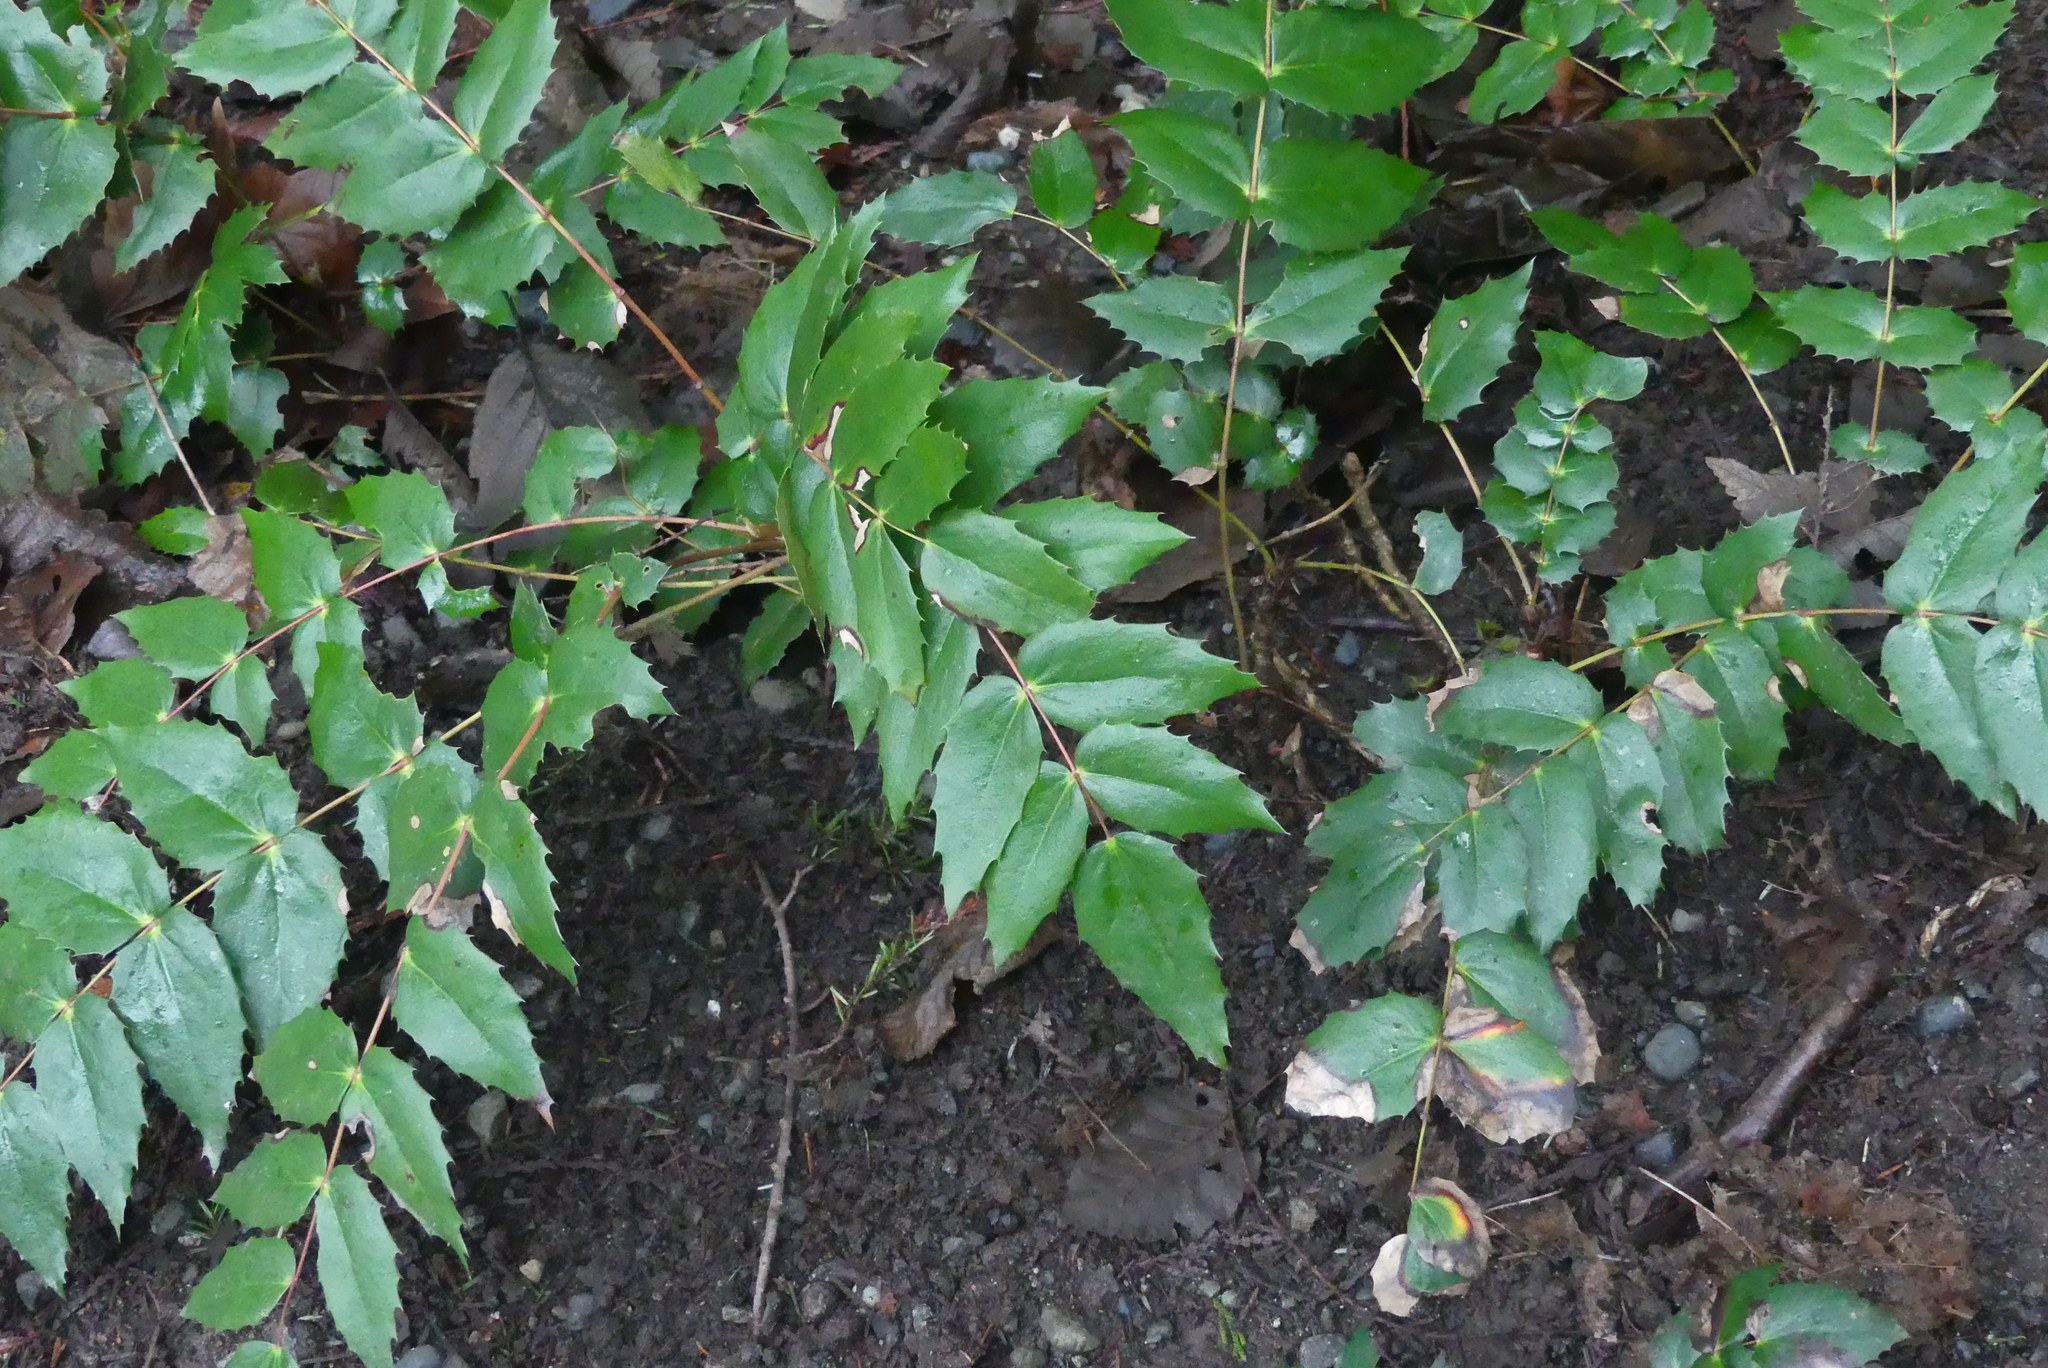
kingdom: Plantae
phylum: Tracheophyta
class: Magnoliopsida
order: Ranunculales
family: Berberidaceae
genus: Mahonia
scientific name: Mahonia nervosa
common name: Cascade oregon-grape
